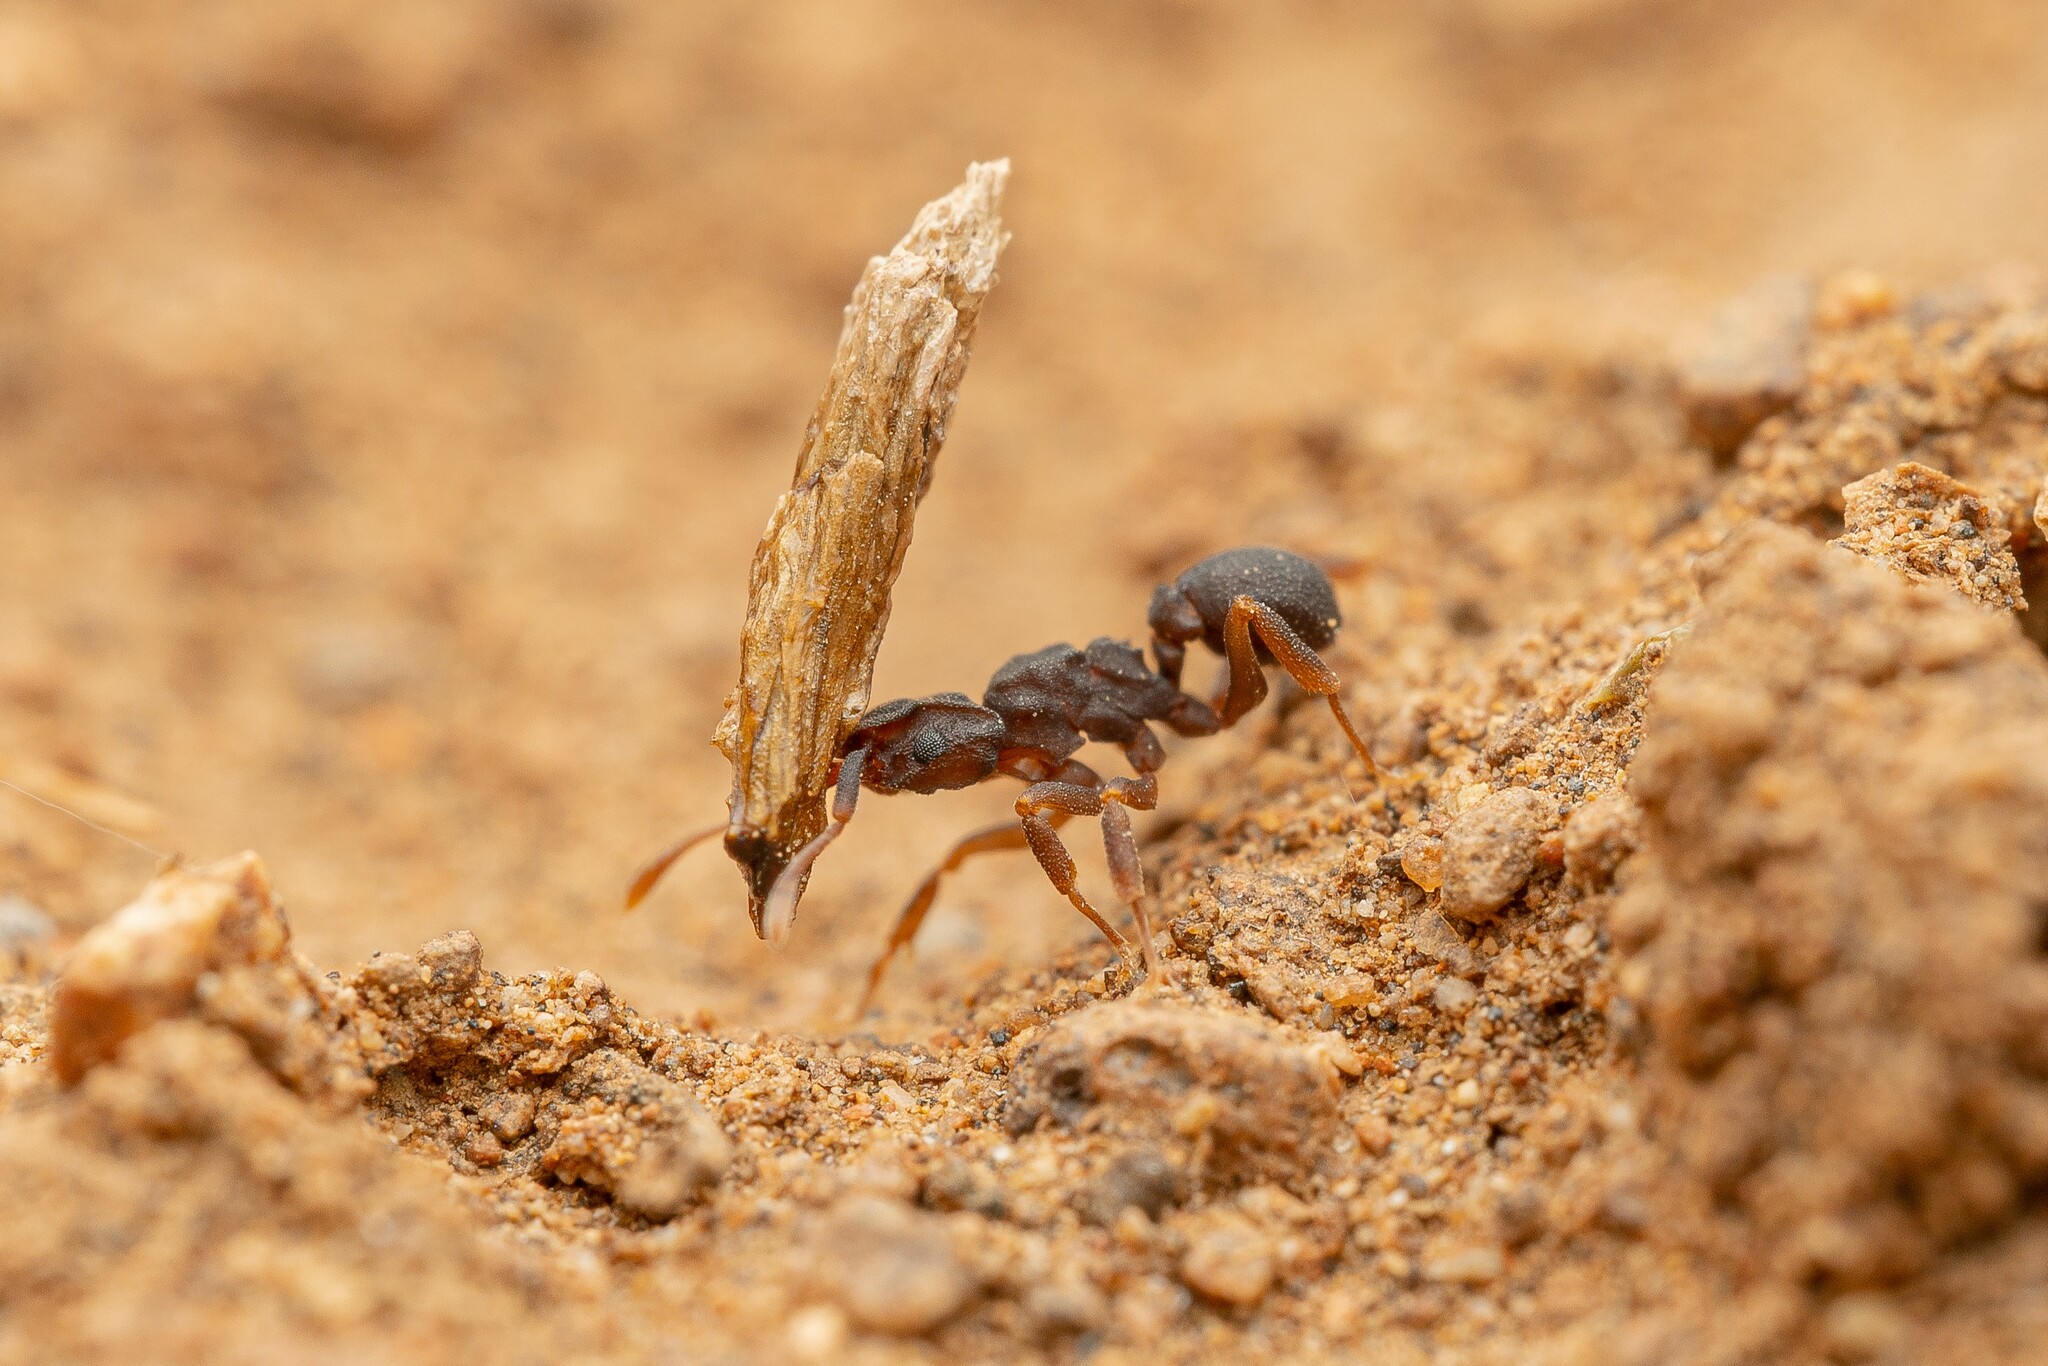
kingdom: Animalia
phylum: Arthropoda
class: Insecta
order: Hymenoptera
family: Formicidae
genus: Cyphomyrmex
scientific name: Cyphomyrmex flavidus
